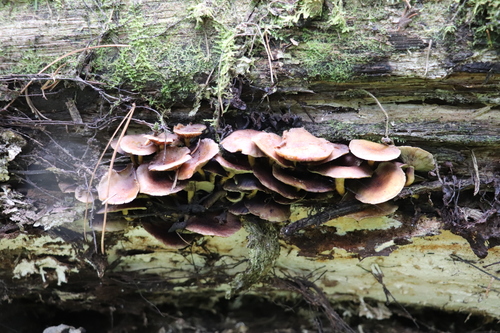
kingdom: Fungi
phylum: Basidiomycota
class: Agaricomycetes
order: Agaricales
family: Strophariaceae
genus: Hypholoma
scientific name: Hypholoma fasciculare
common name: Sulphur tuft
